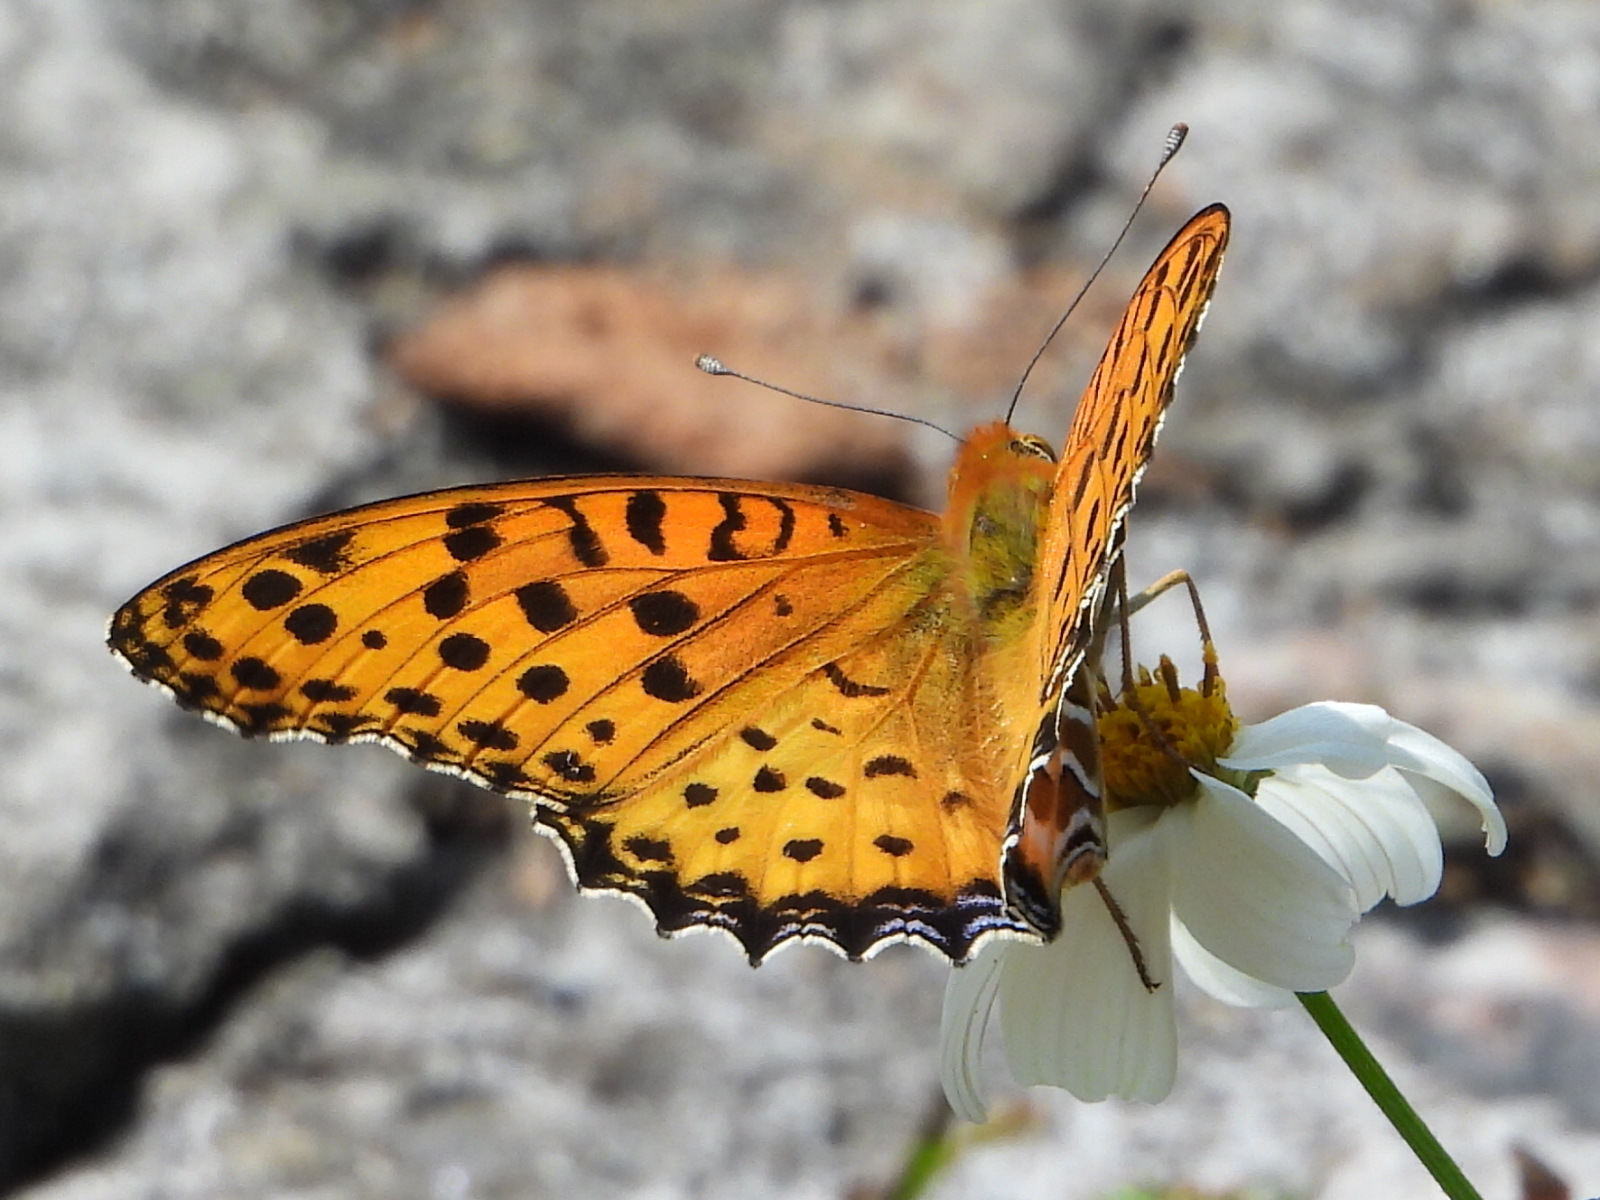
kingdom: Animalia
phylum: Arthropoda
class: Insecta
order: Lepidoptera
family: Nymphalidae
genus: Argynnis
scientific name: Argynnis hyperbius
